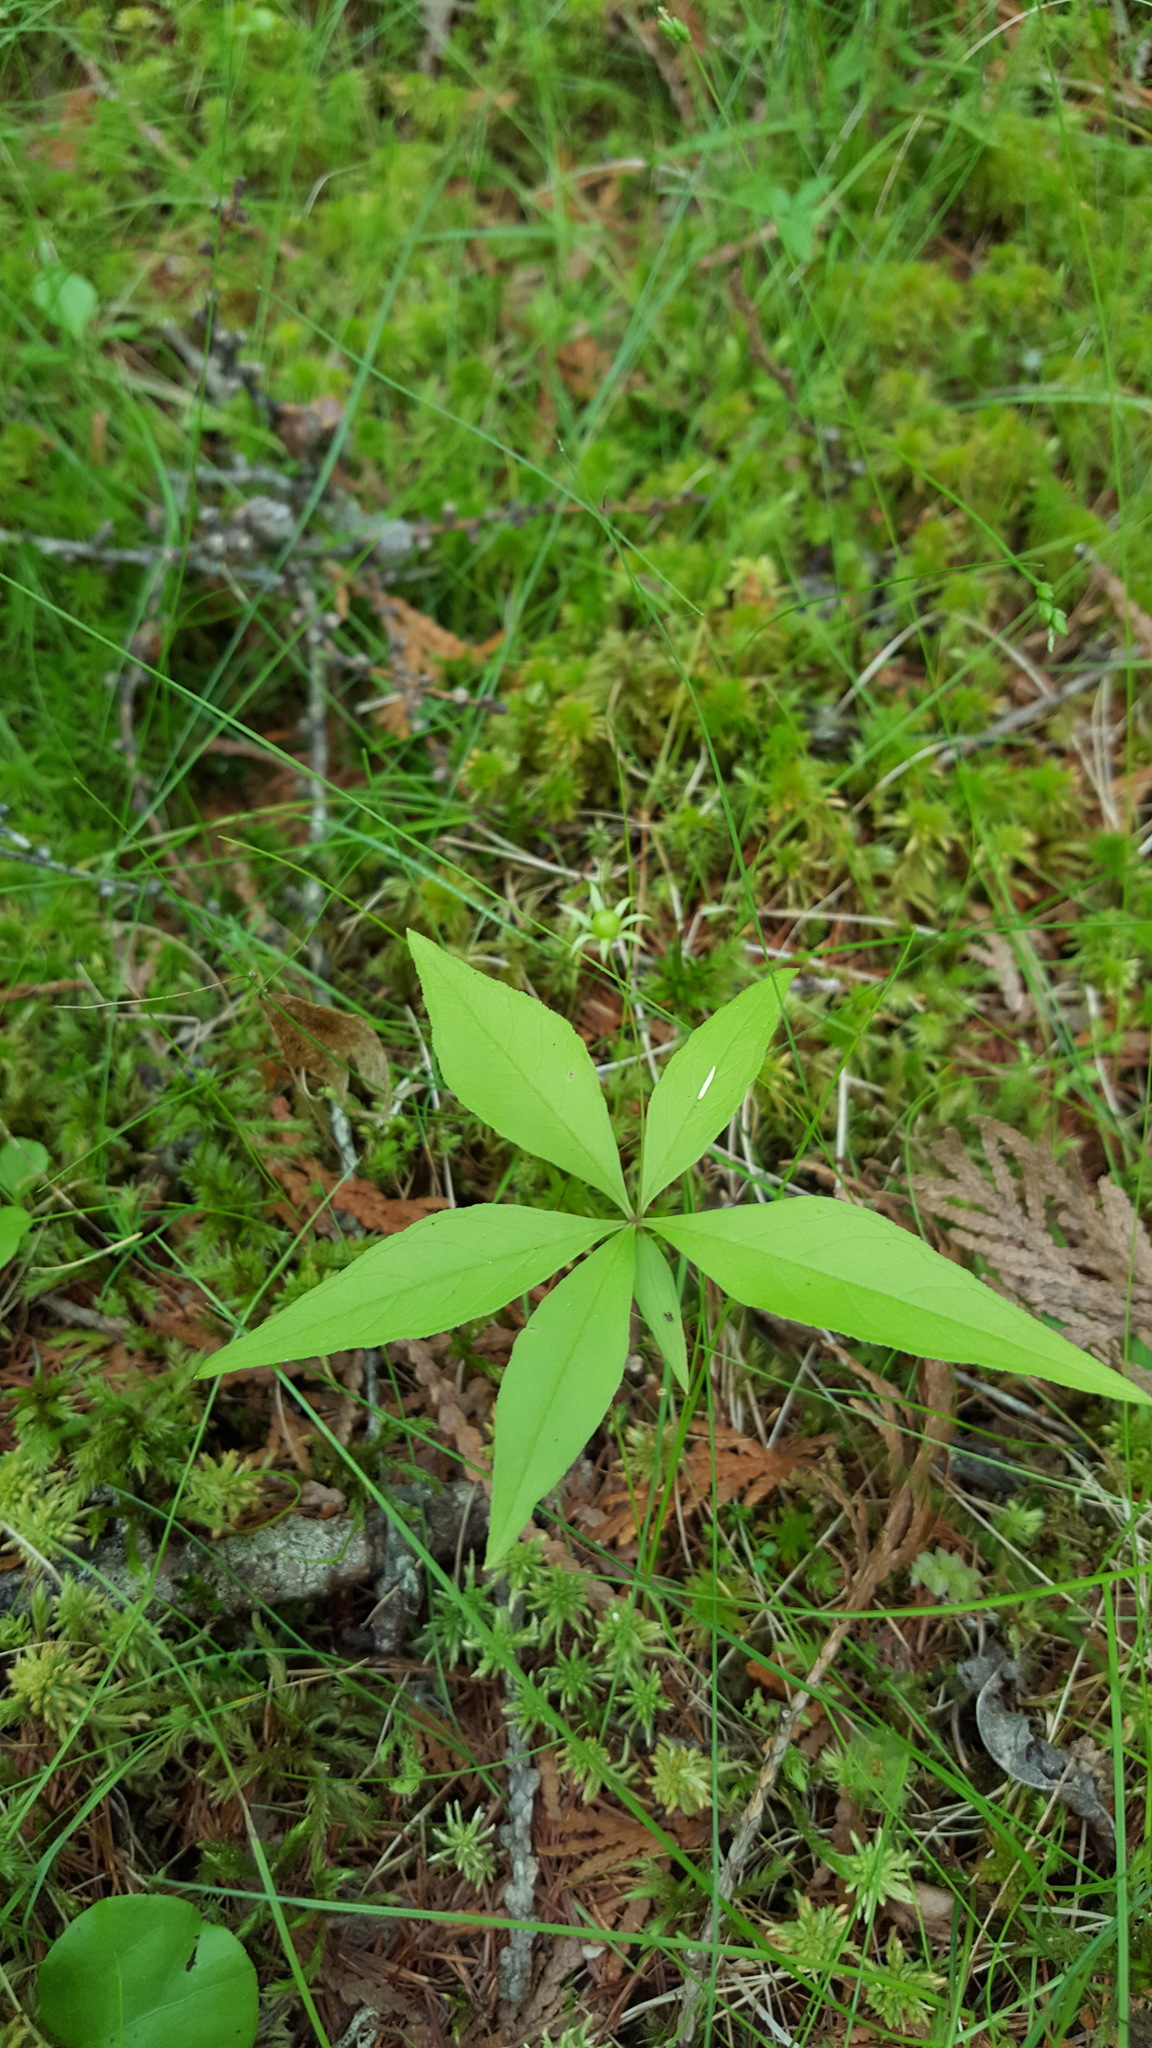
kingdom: Plantae
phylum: Tracheophyta
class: Magnoliopsida
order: Ericales
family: Primulaceae
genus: Lysimachia
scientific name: Lysimachia borealis
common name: American starflower
